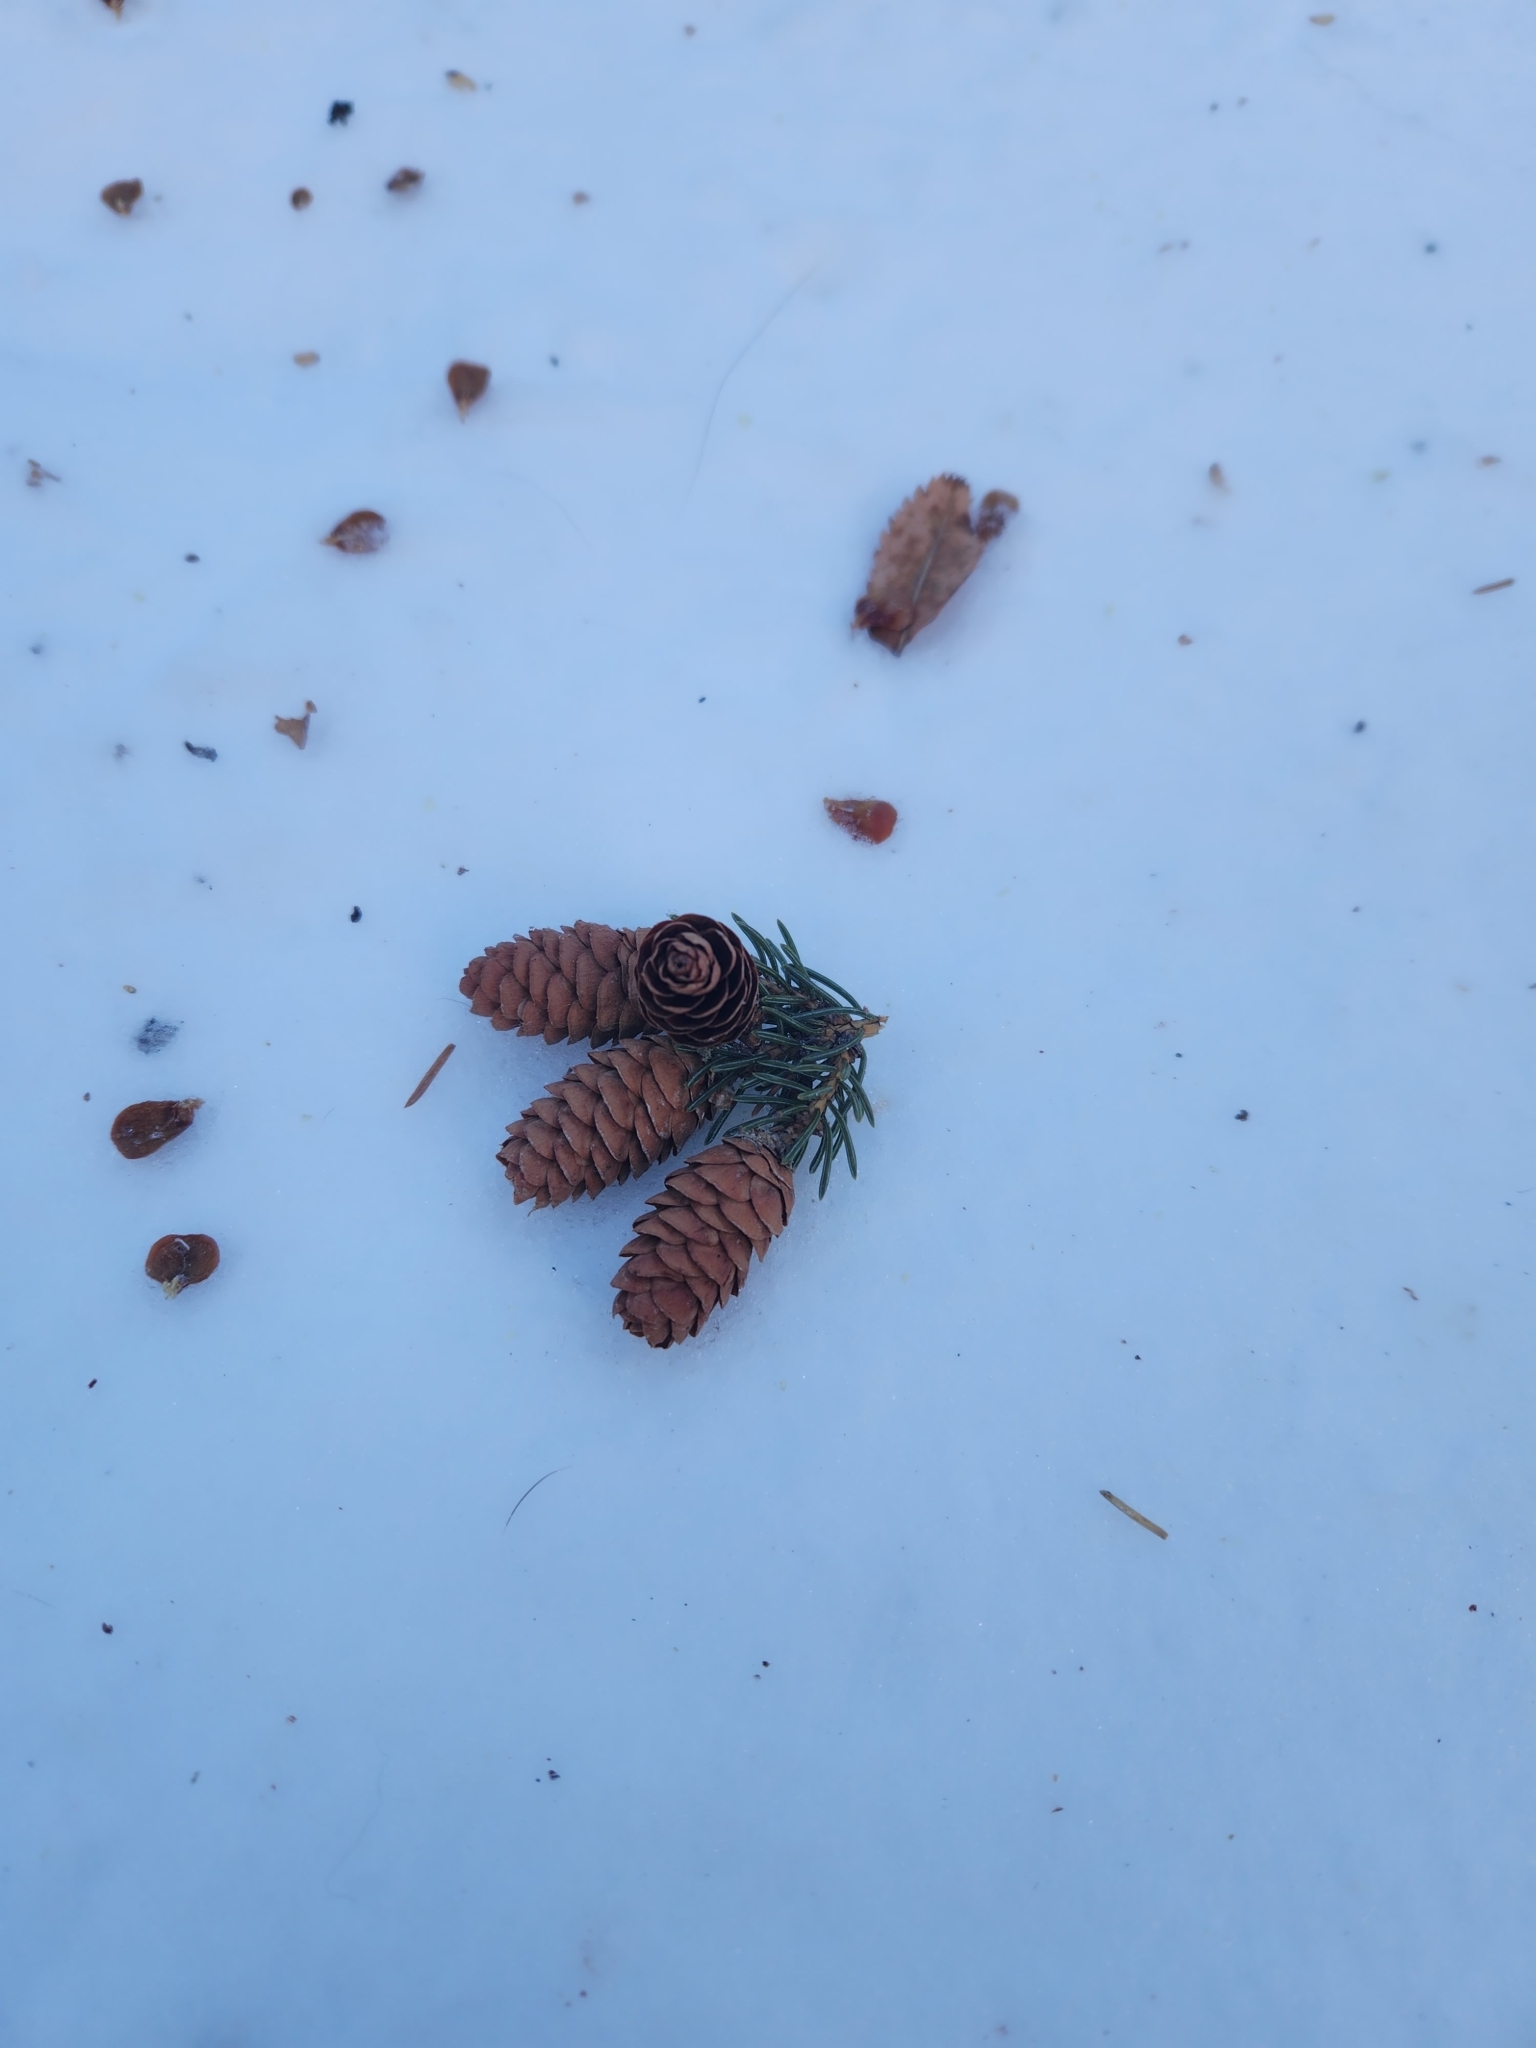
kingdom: Plantae
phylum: Tracheophyta
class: Pinopsida
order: Pinales
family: Pinaceae
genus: Picea
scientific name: Picea glauca
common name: White spruce
